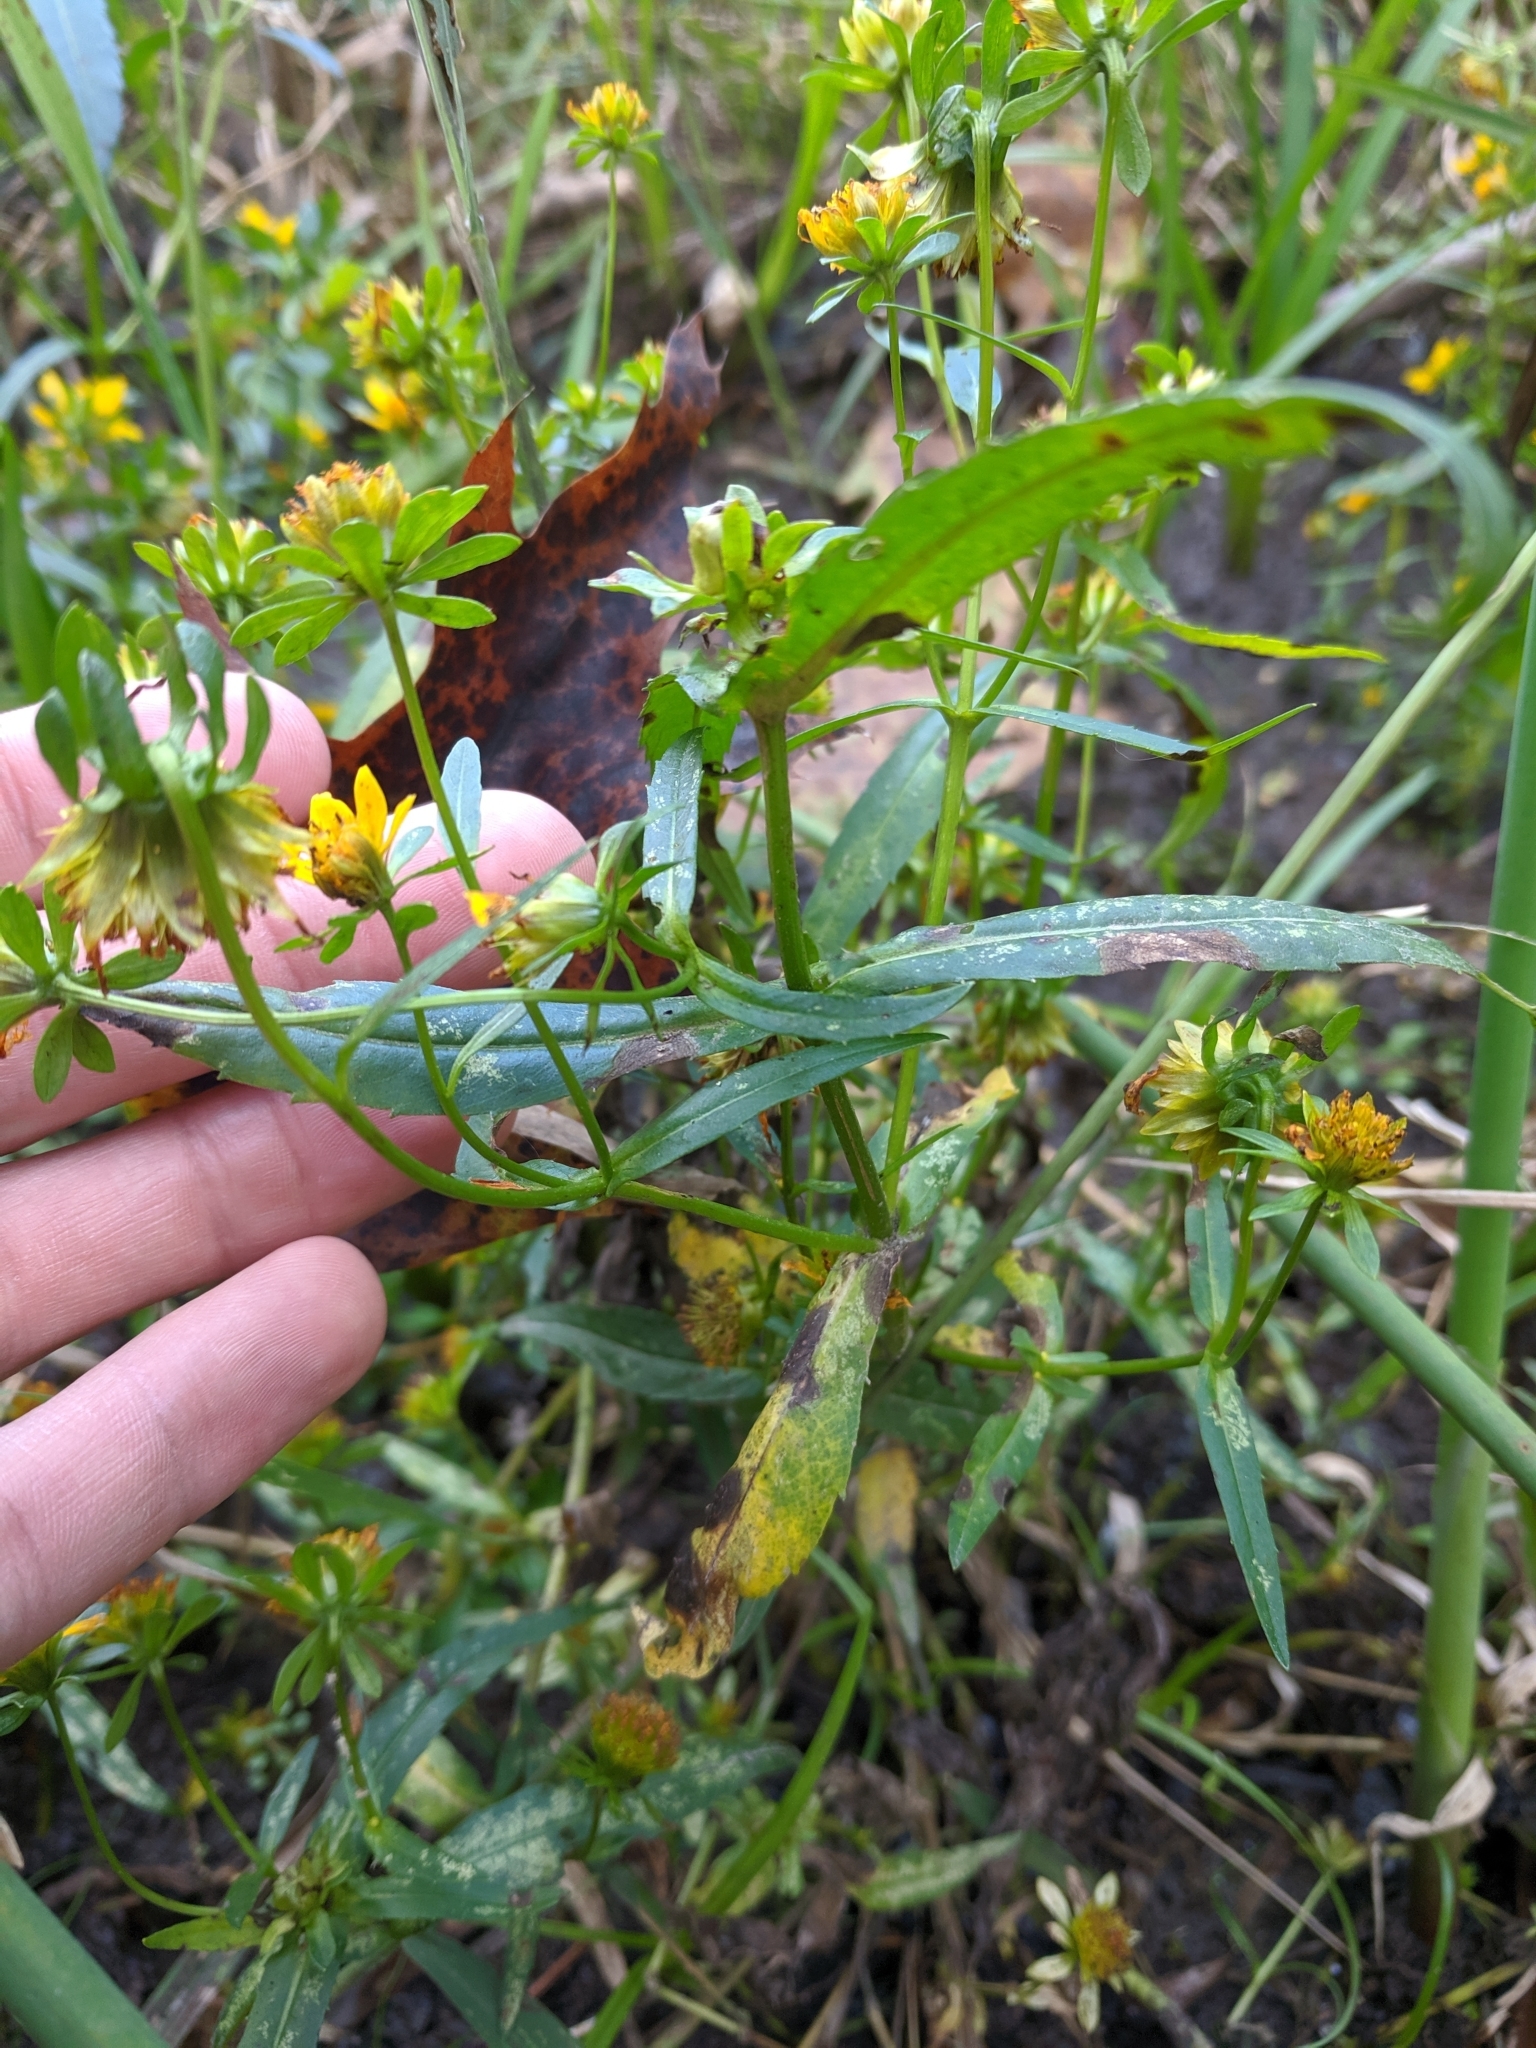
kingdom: Plantae
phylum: Tracheophyta
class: Magnoliopsida
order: Asterales
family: Asteraceae
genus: Bidens
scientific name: Bidens cernua
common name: Nodding bur-marigold
